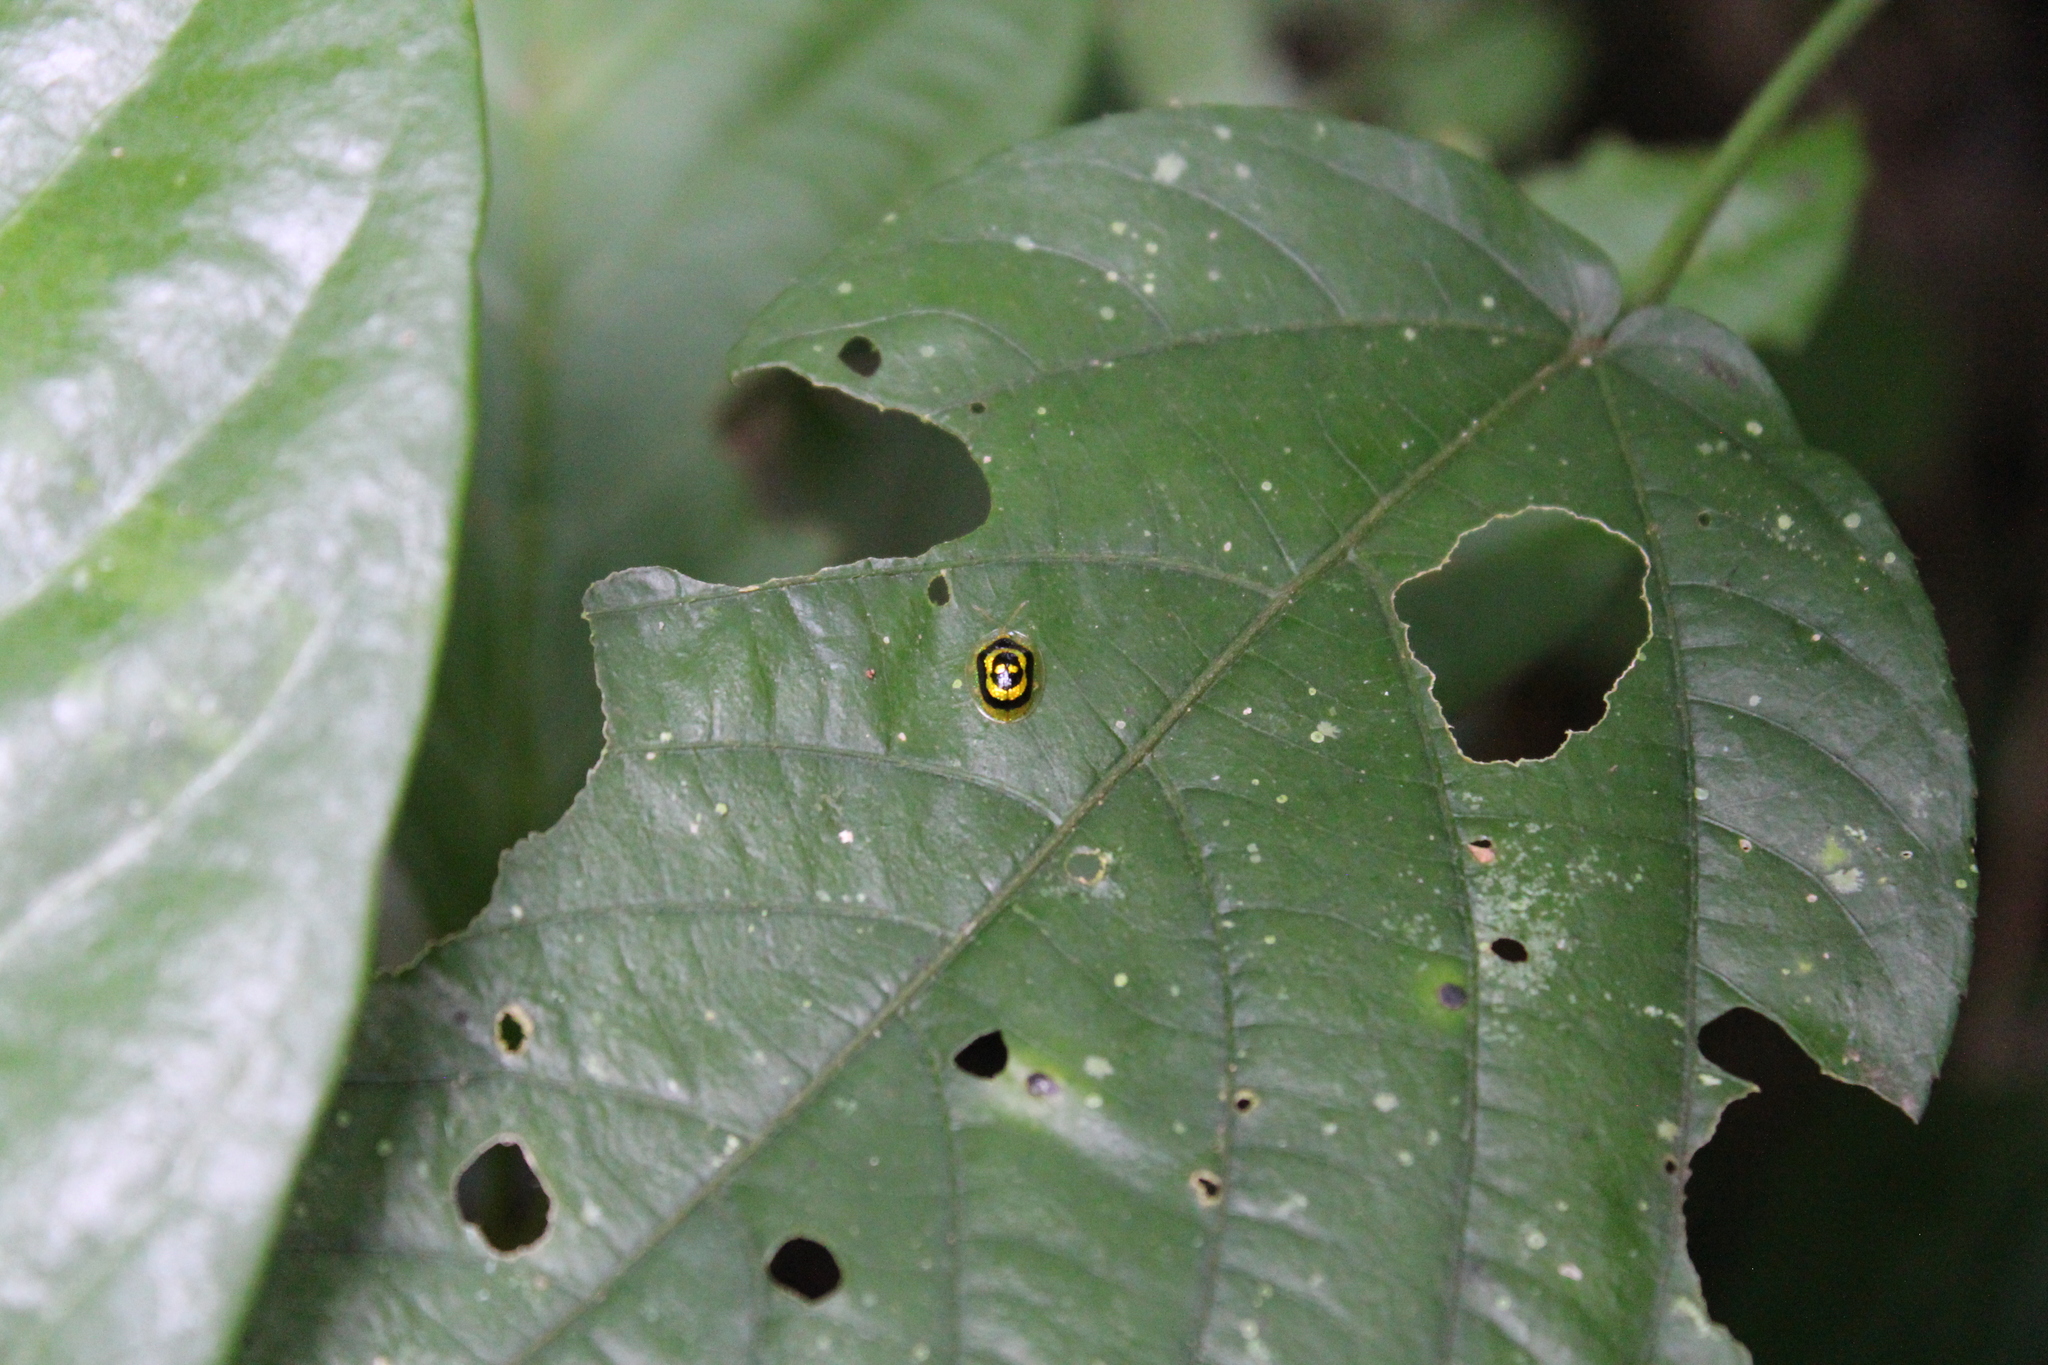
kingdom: Animalia
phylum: Arthropoda
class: Insecta
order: Coleoptera
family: Chrysomelidae
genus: Microctenochira
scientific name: Microctenochira circinaria
